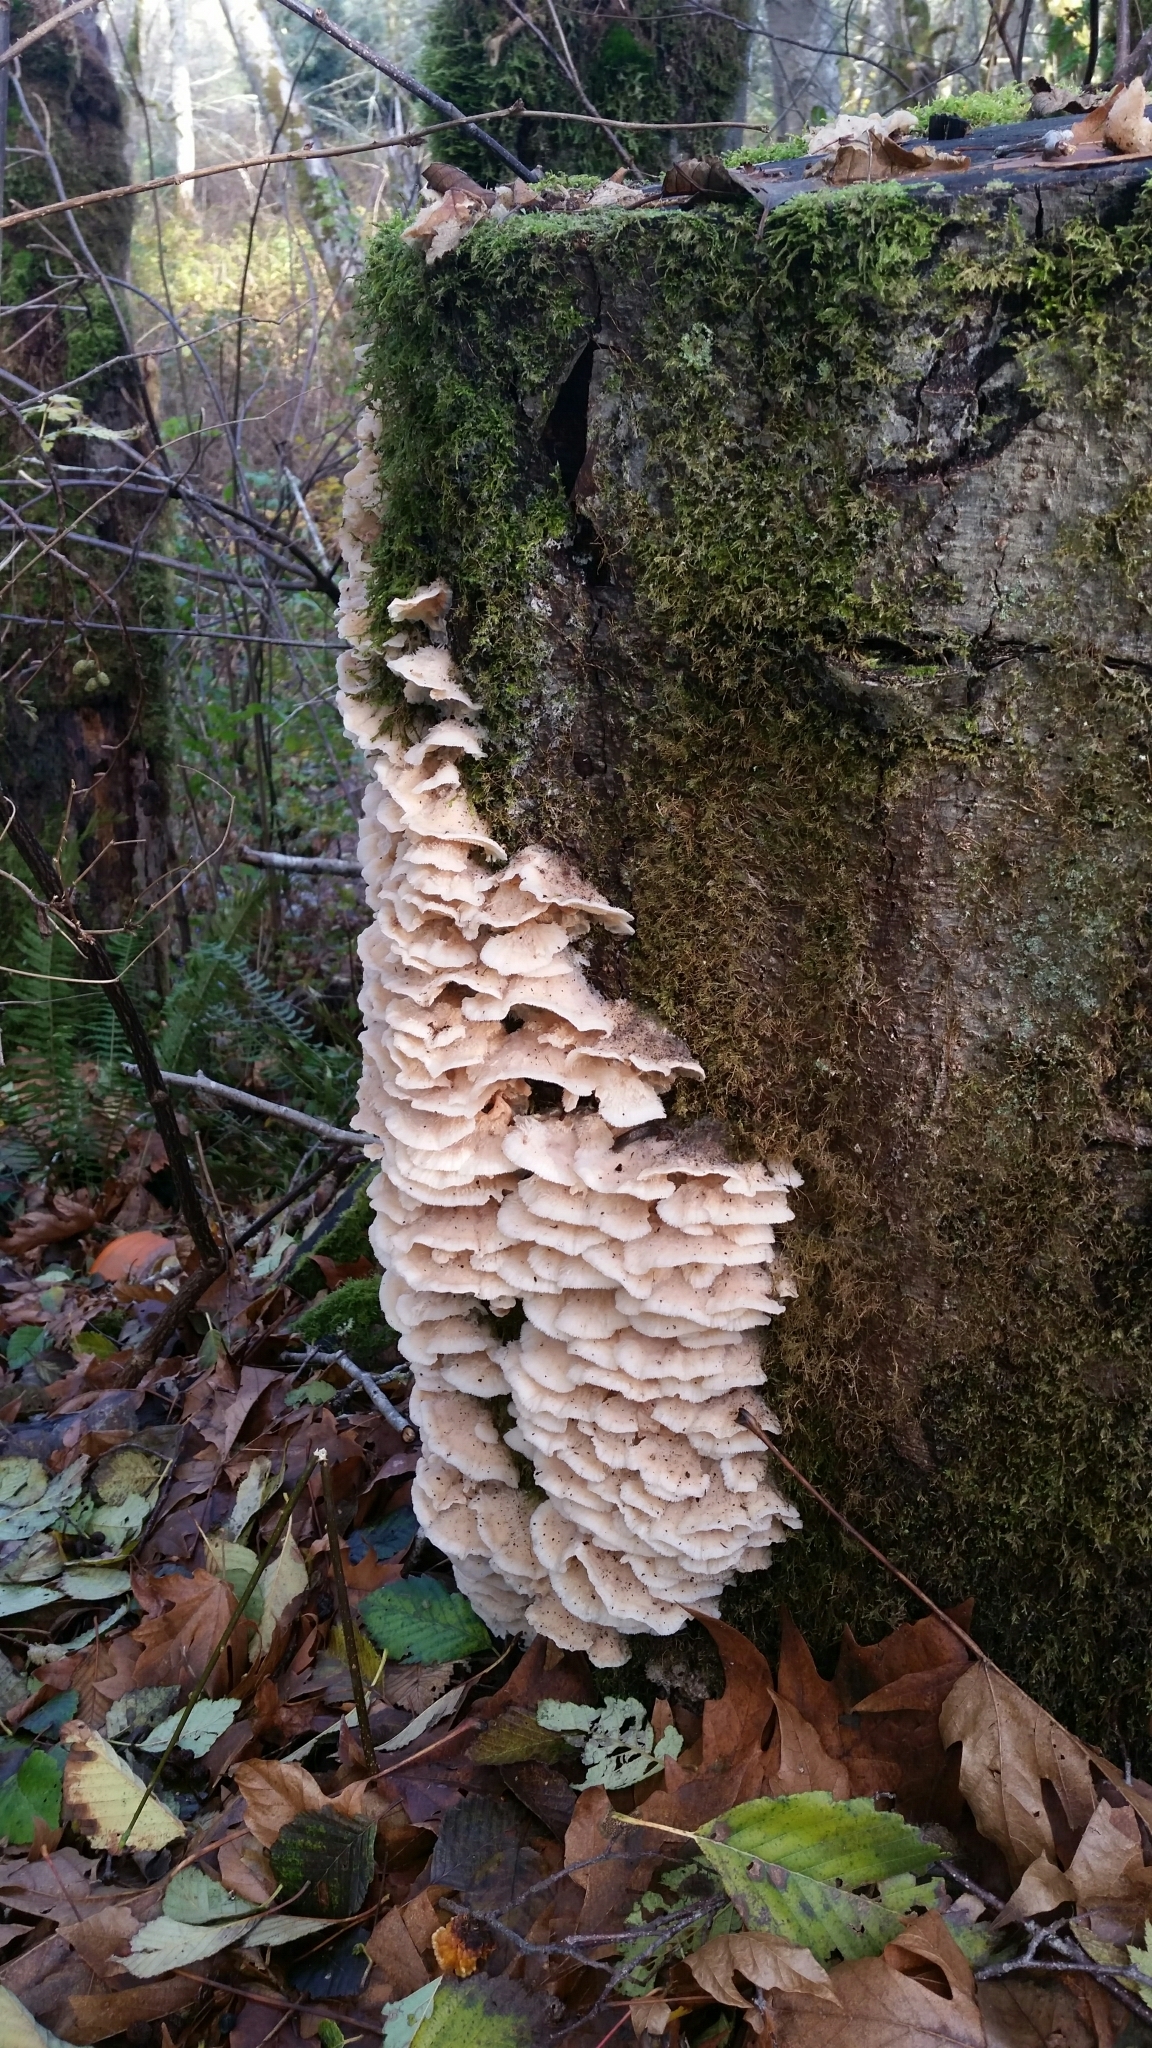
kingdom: Fungi
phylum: Basidiomycota
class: Agaricomycetes
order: Polyporales
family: Meruliaceae
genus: Phlebia
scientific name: Phlebia tremellosa
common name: Jelly rot
